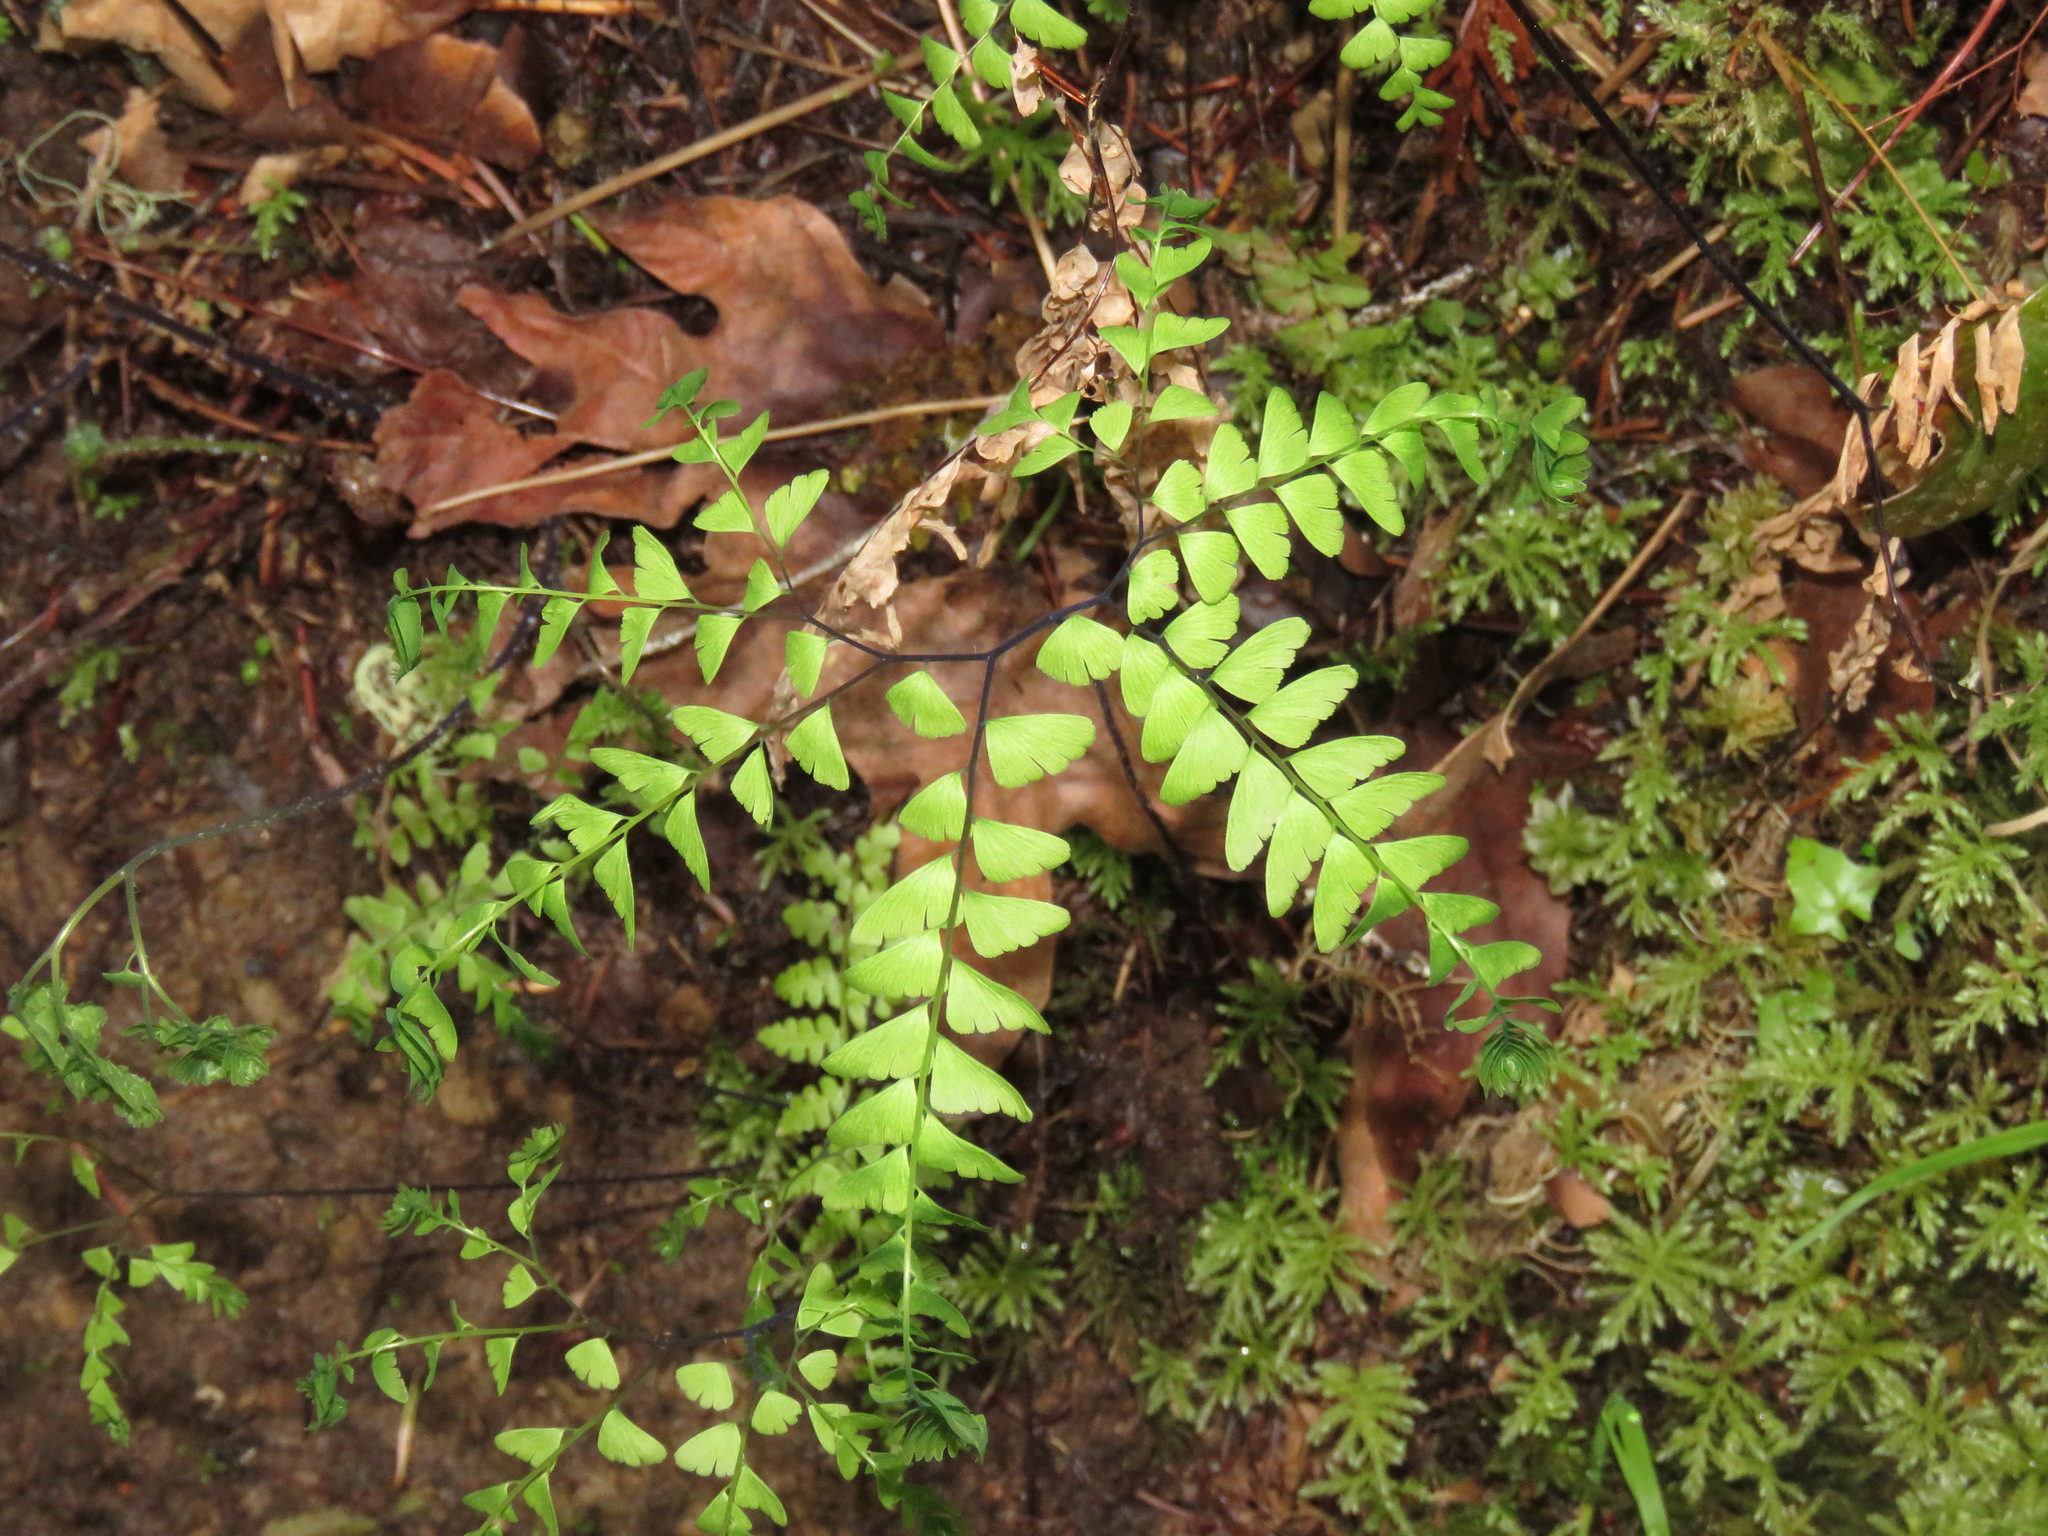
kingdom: Plantae
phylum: Tracheophyta
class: Polypodiopsida
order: Polypodiales
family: Pteridaceae
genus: Adiantum
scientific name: Adiantum aleuticum
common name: Aleutian maidenhair fern
